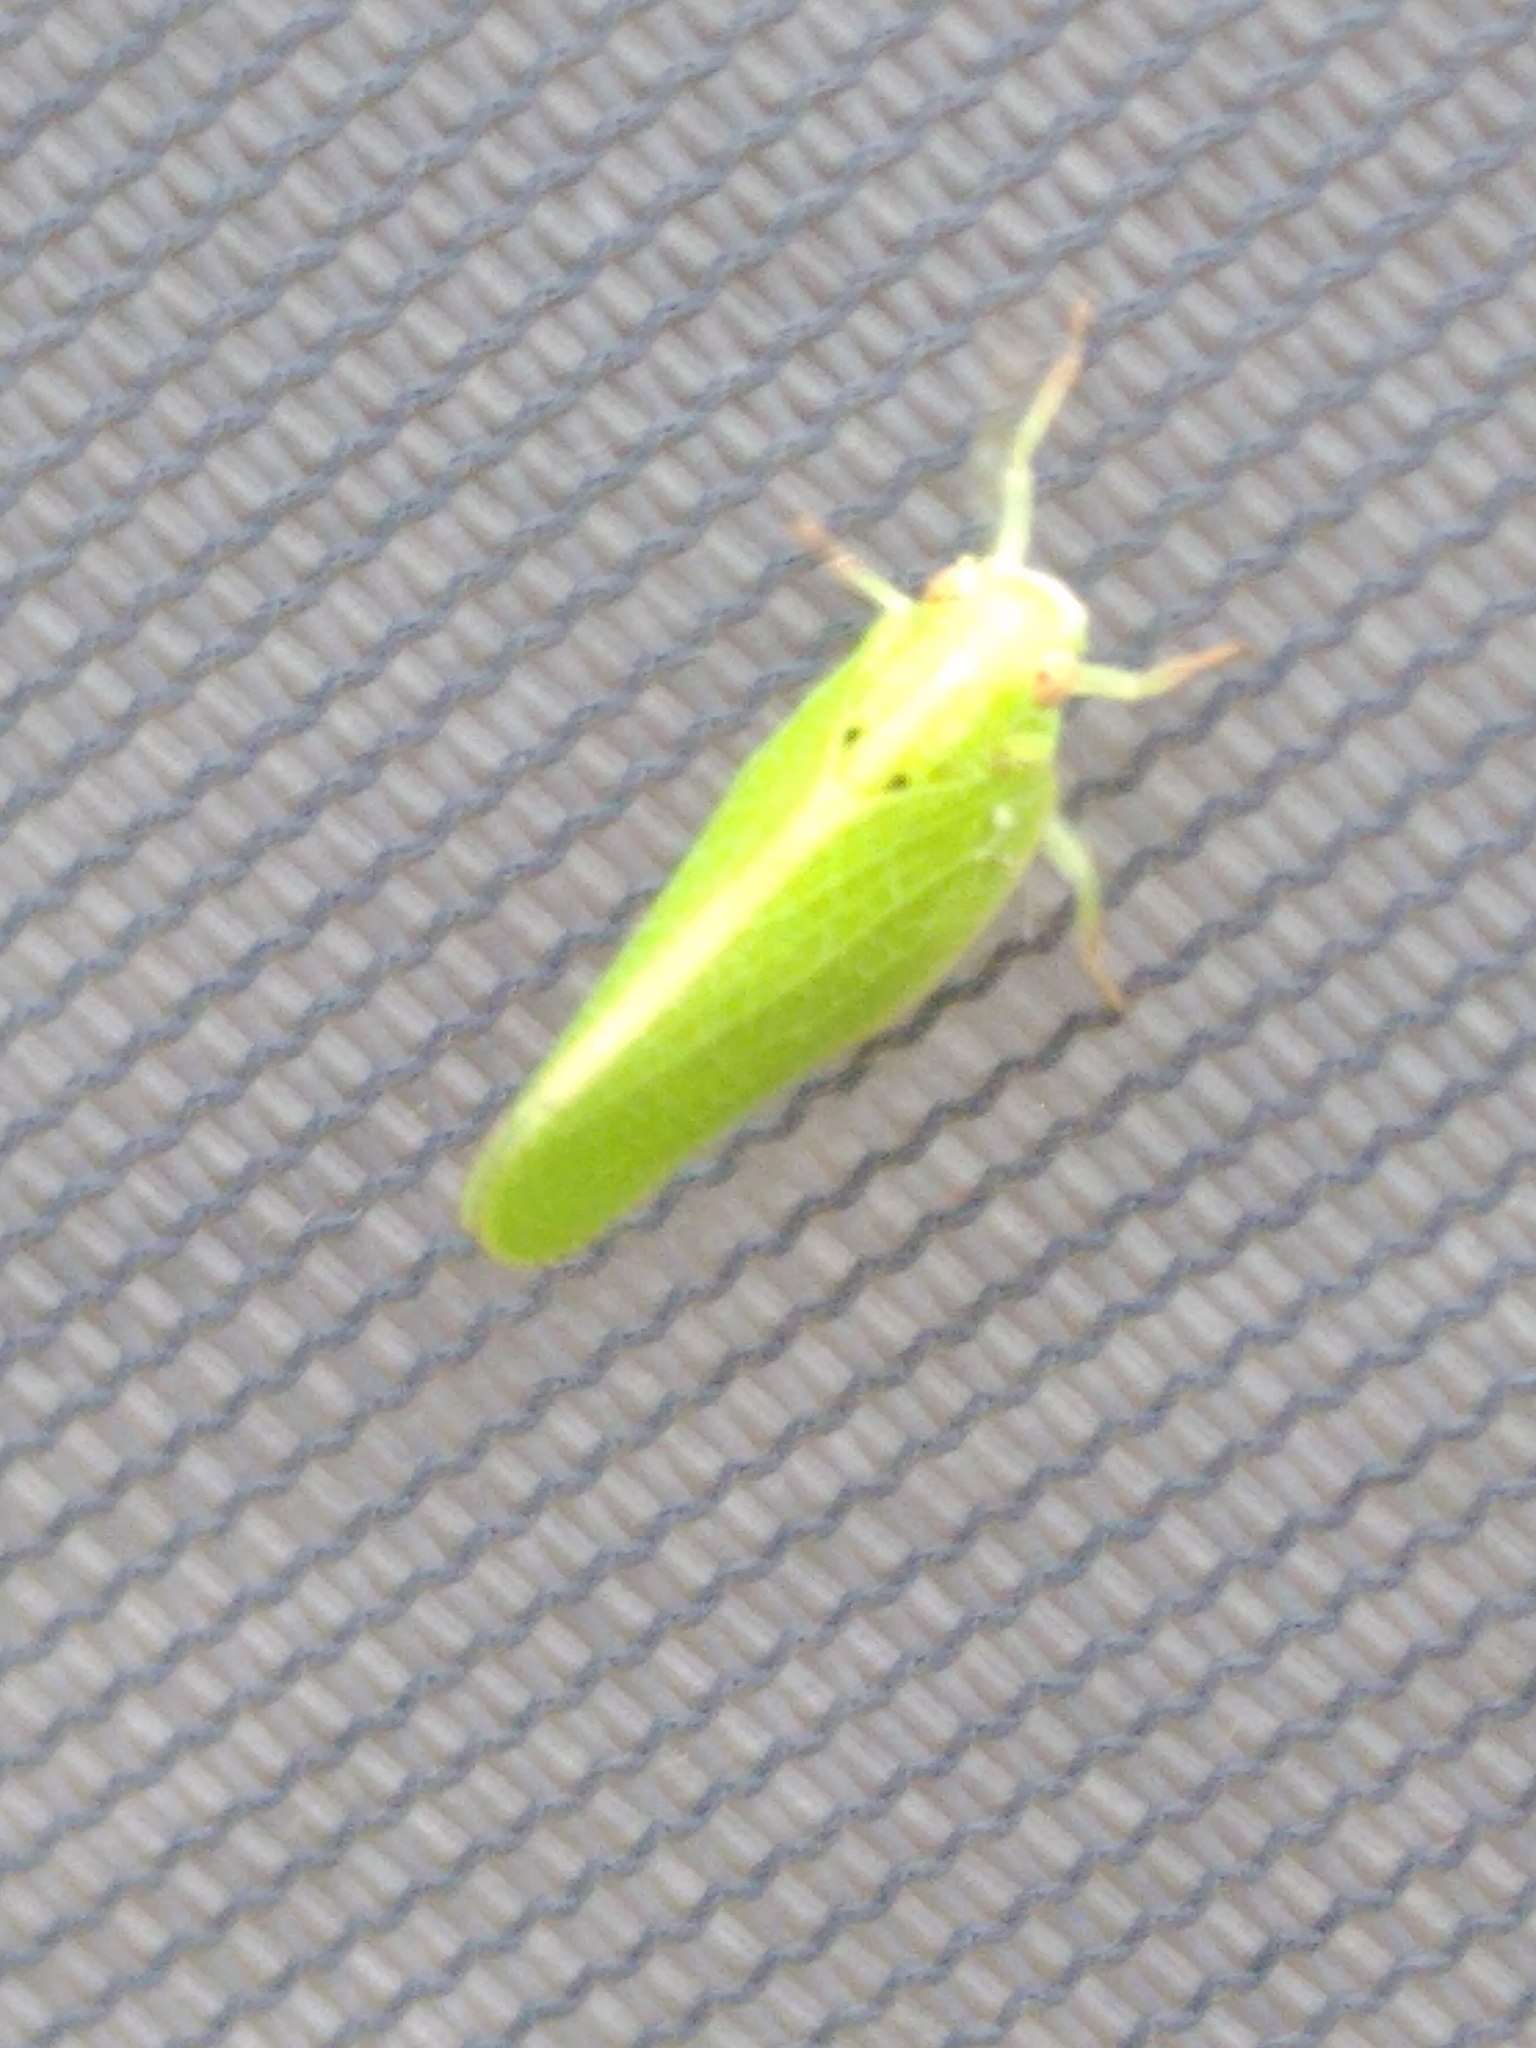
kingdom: Animalia
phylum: Arthropoda
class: Insecta
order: Hemiptera
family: Acanaloniidae
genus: Acanalonia
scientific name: Acanalonia conica
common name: Green cone-headed planthopper
